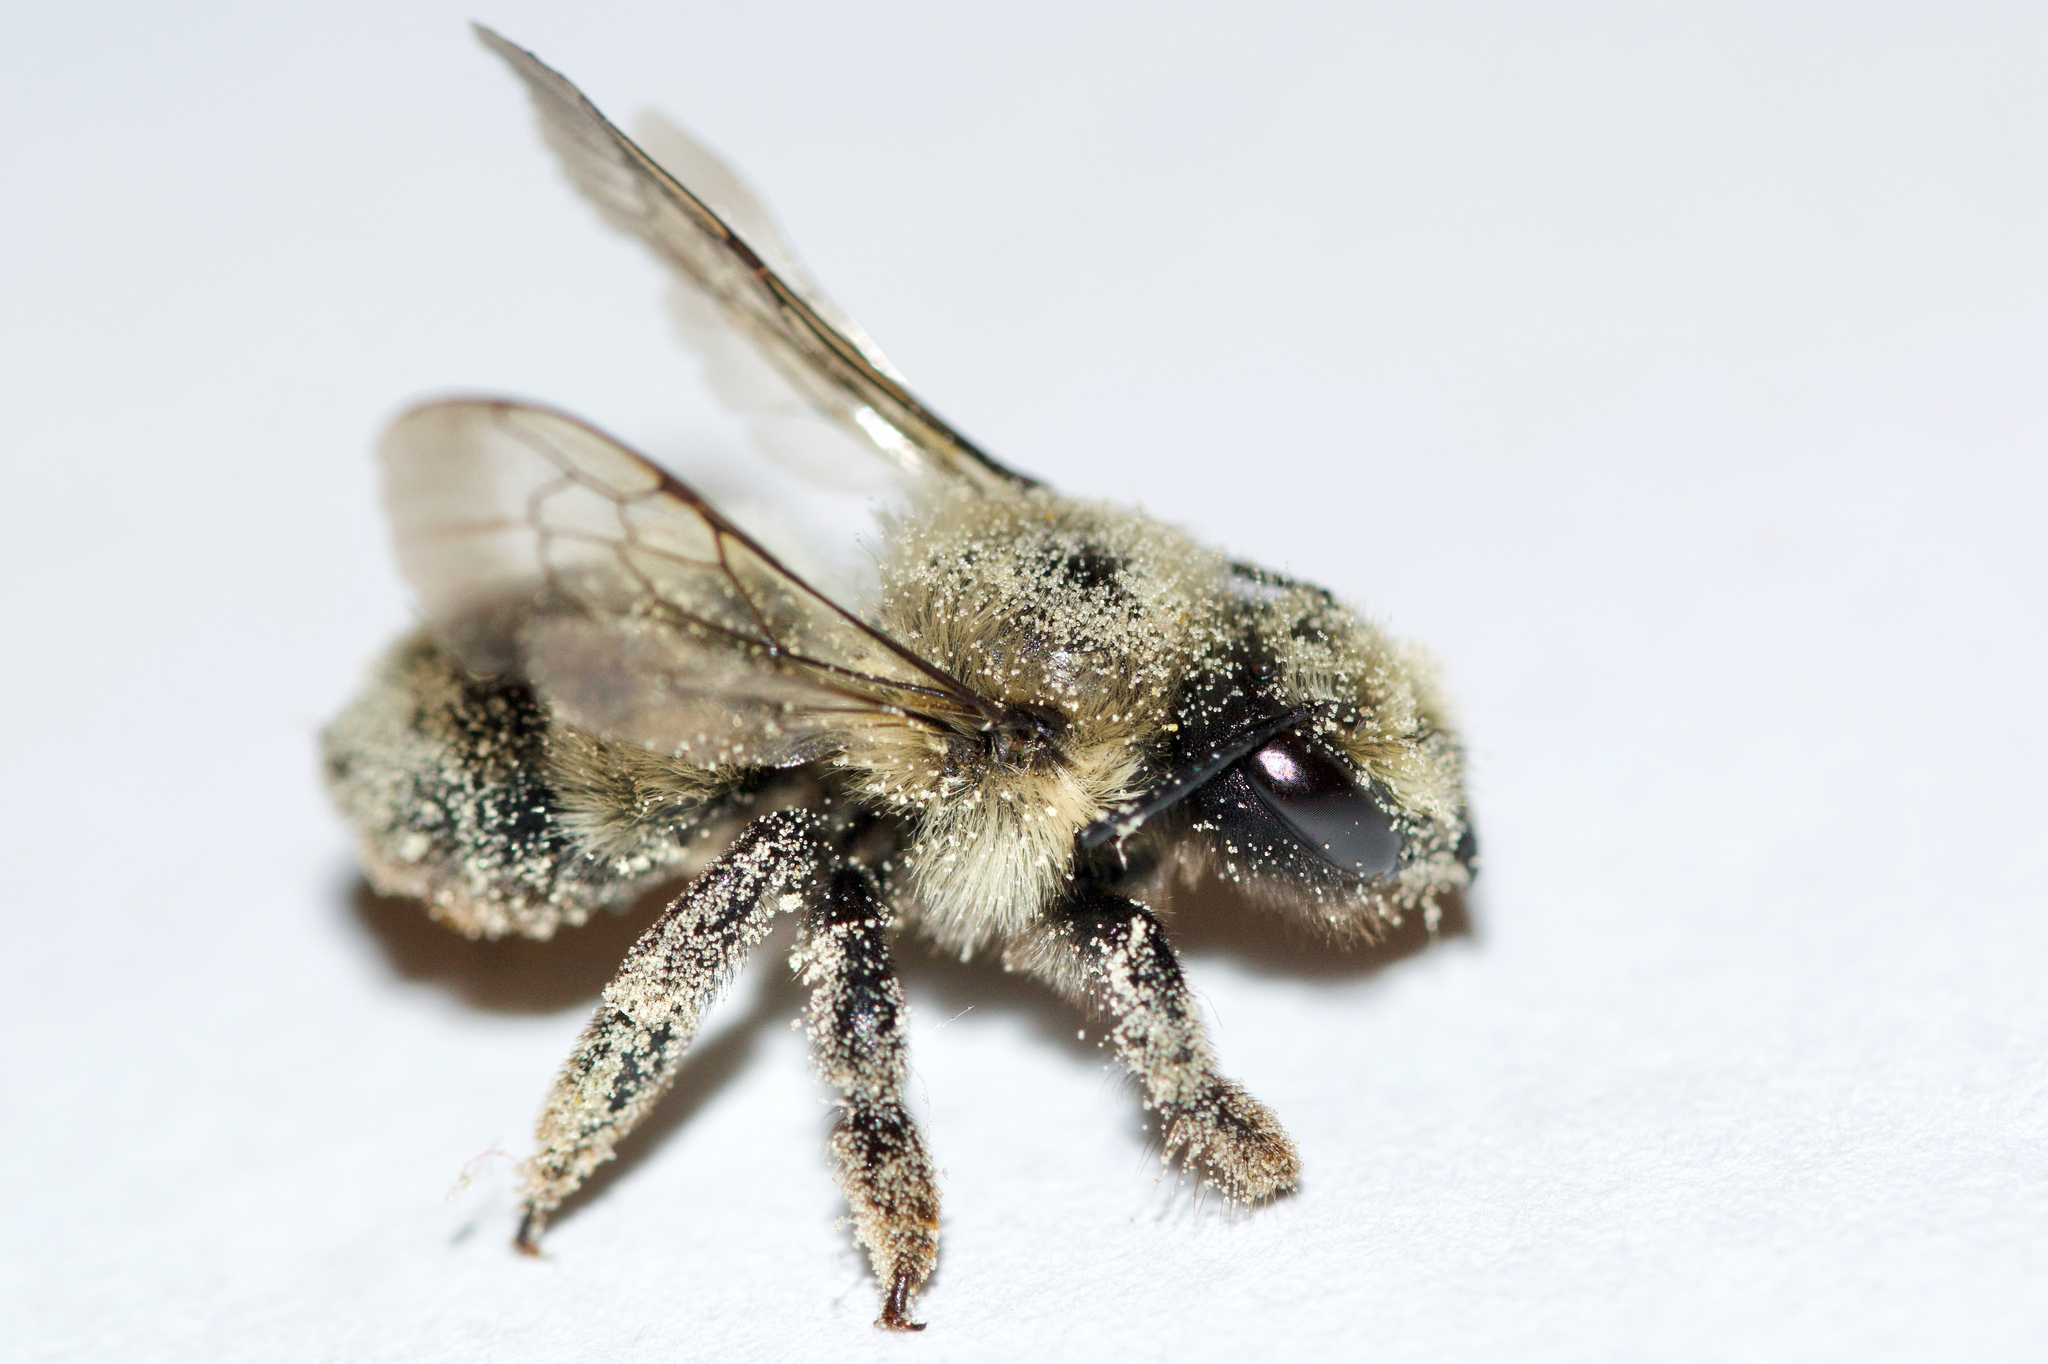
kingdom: Animalia
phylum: Arthropoda
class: Insecta
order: Hymenoptera
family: Megachilidae
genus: Megachile
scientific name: Megachile melanophaea
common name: Black-and-gray leafcutter bee
